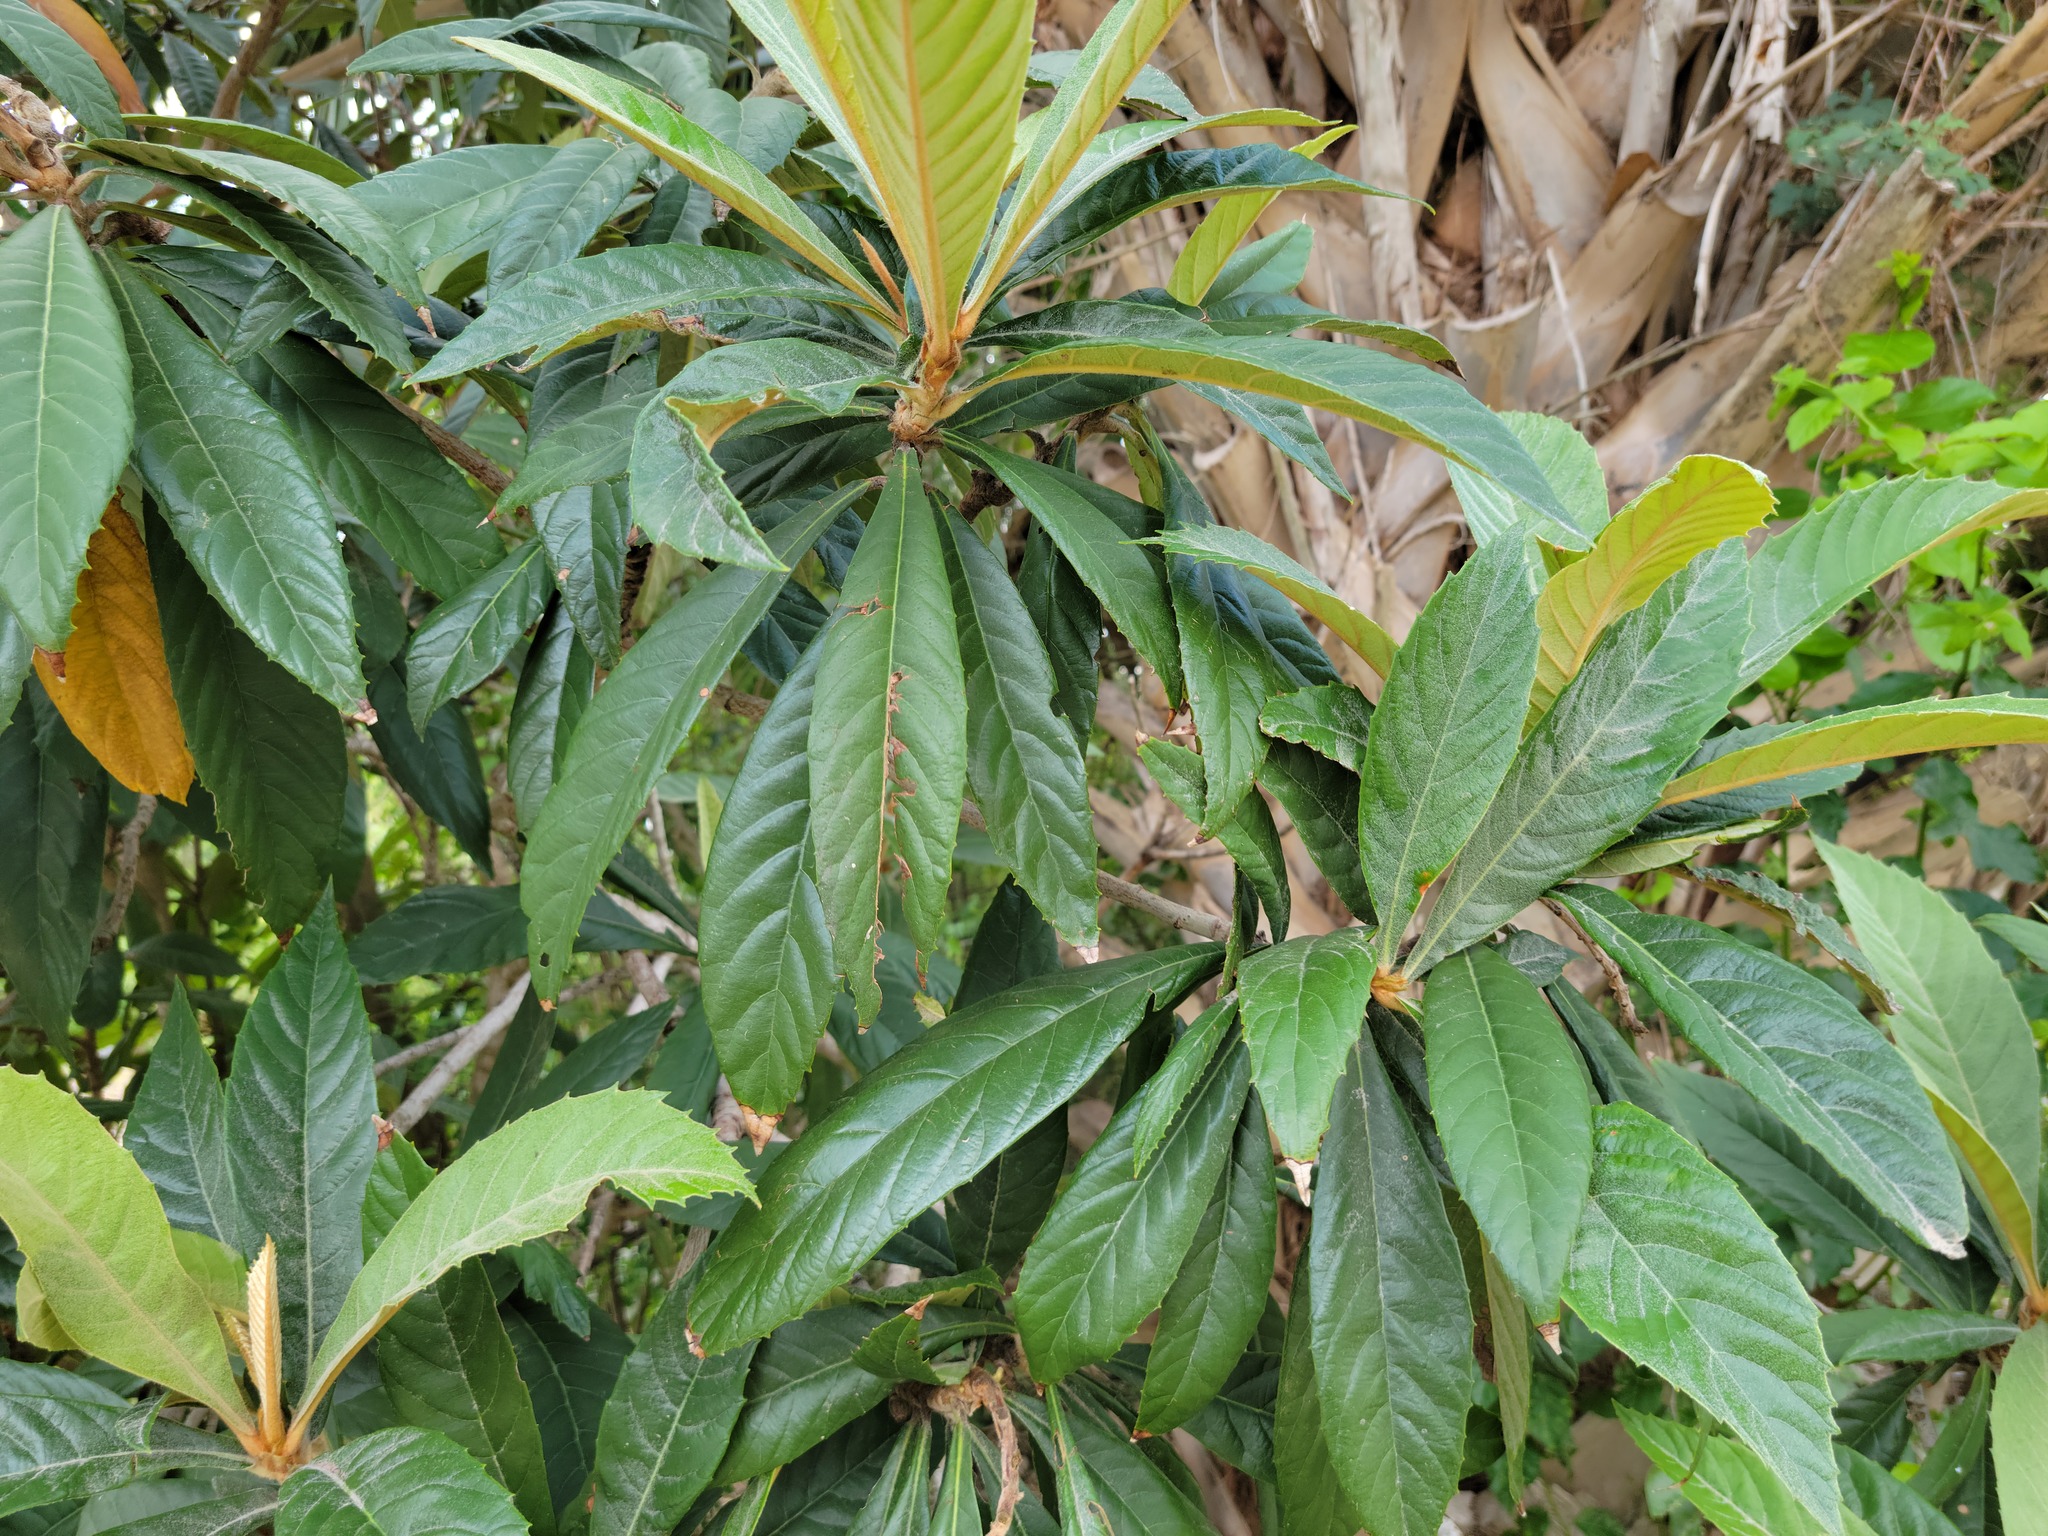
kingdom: Plantae
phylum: Tracheophyta
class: Magnoliopsida
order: Rosales
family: Rosaceae
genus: Rhaphiolepis
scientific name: Rhaphiolepis bibas
